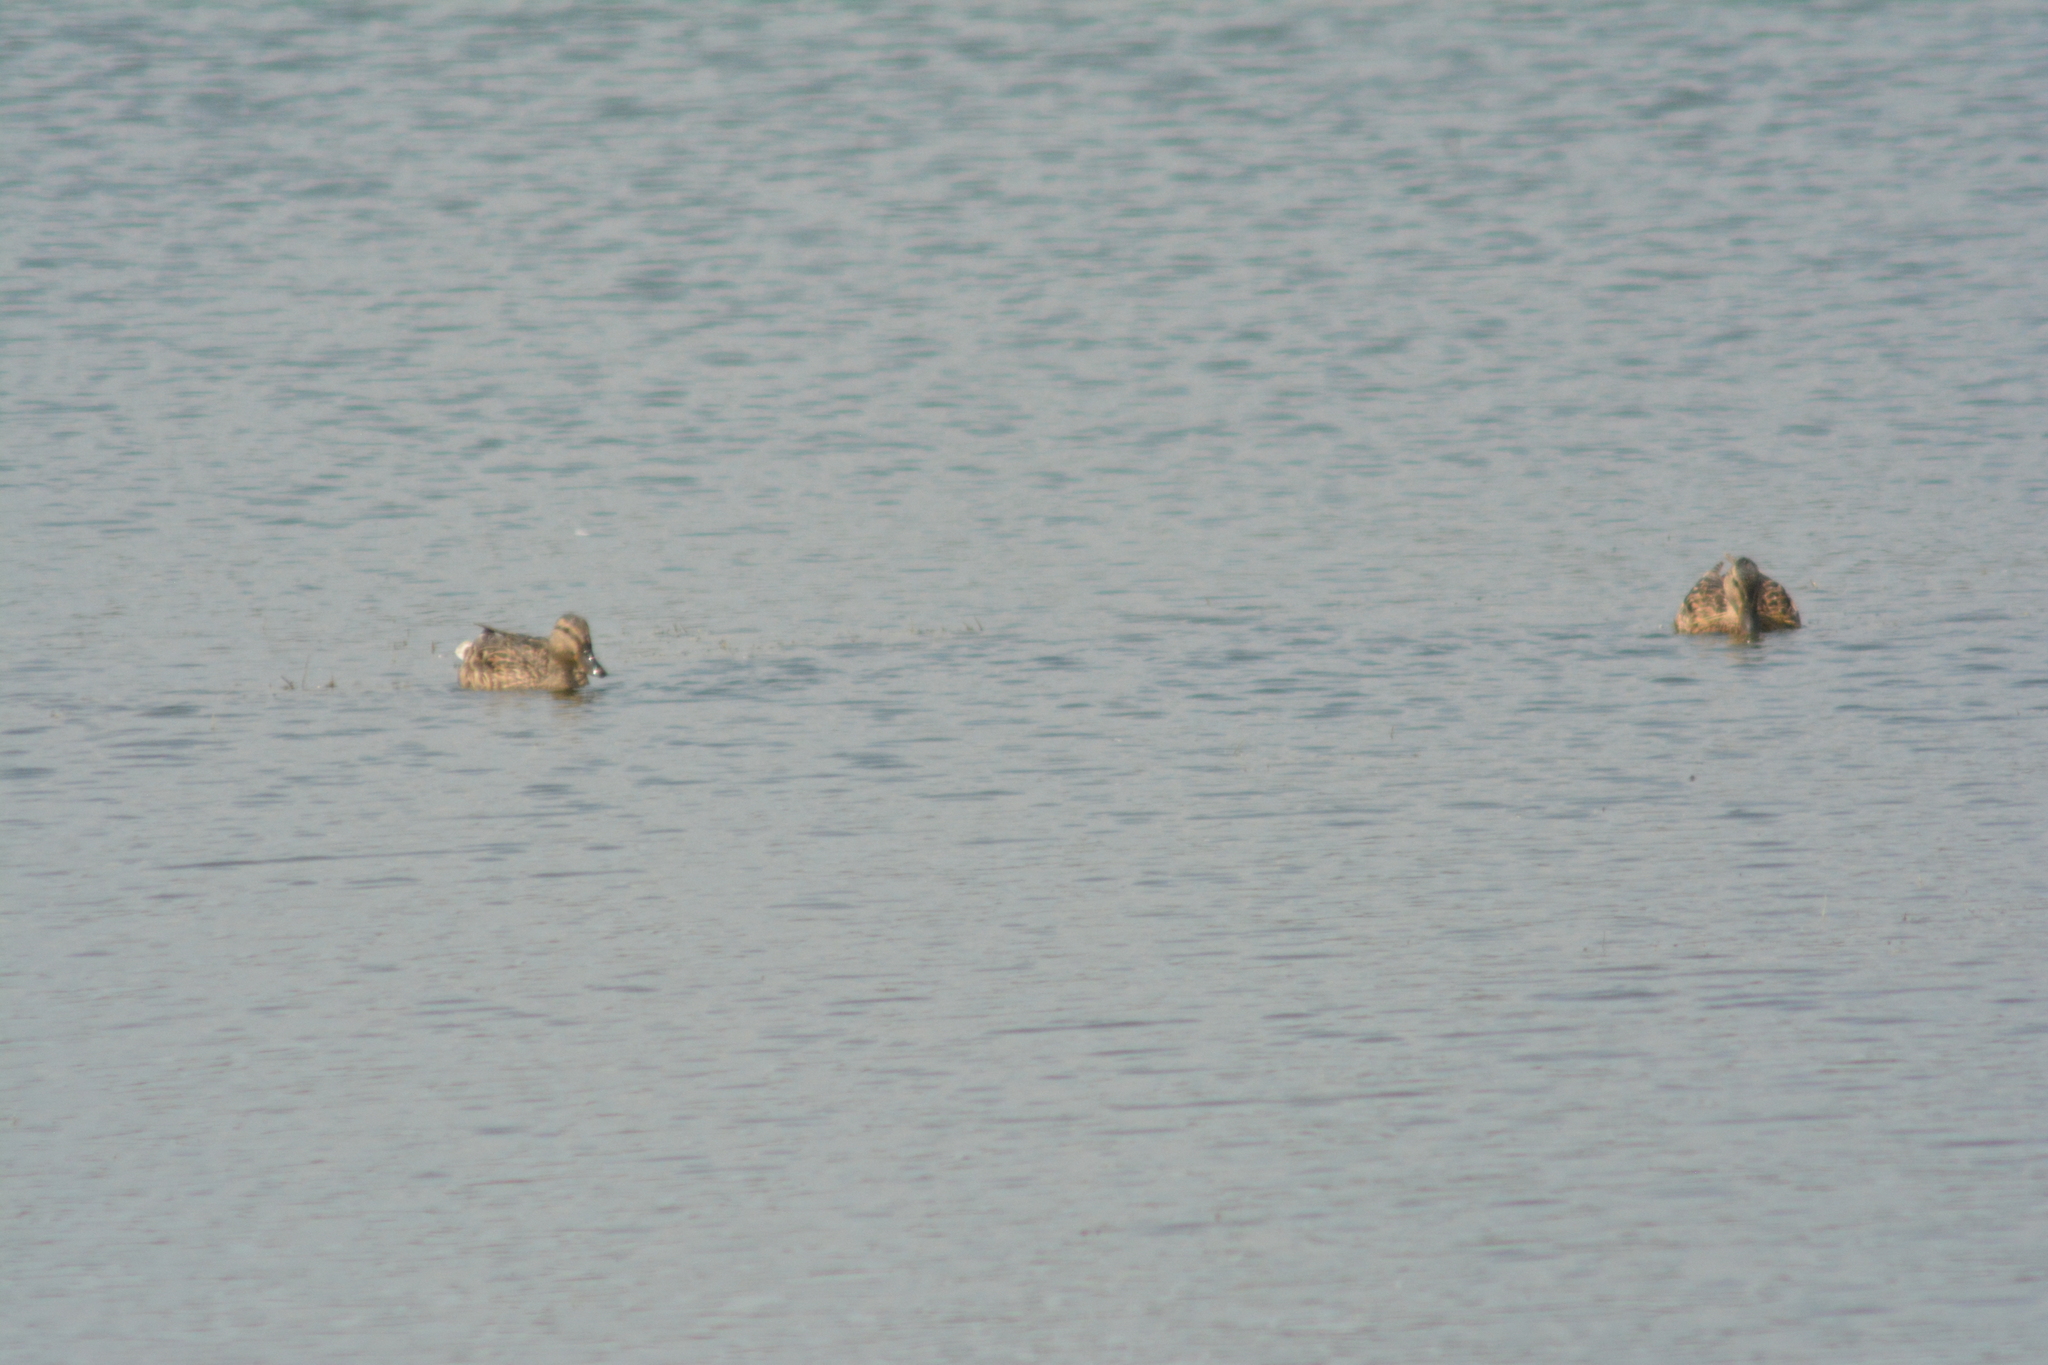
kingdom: Animalia
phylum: Chordata
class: Aves
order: Anseriformes
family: Anatidae
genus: Anas
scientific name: Anas platyrhynchos
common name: Mallard
